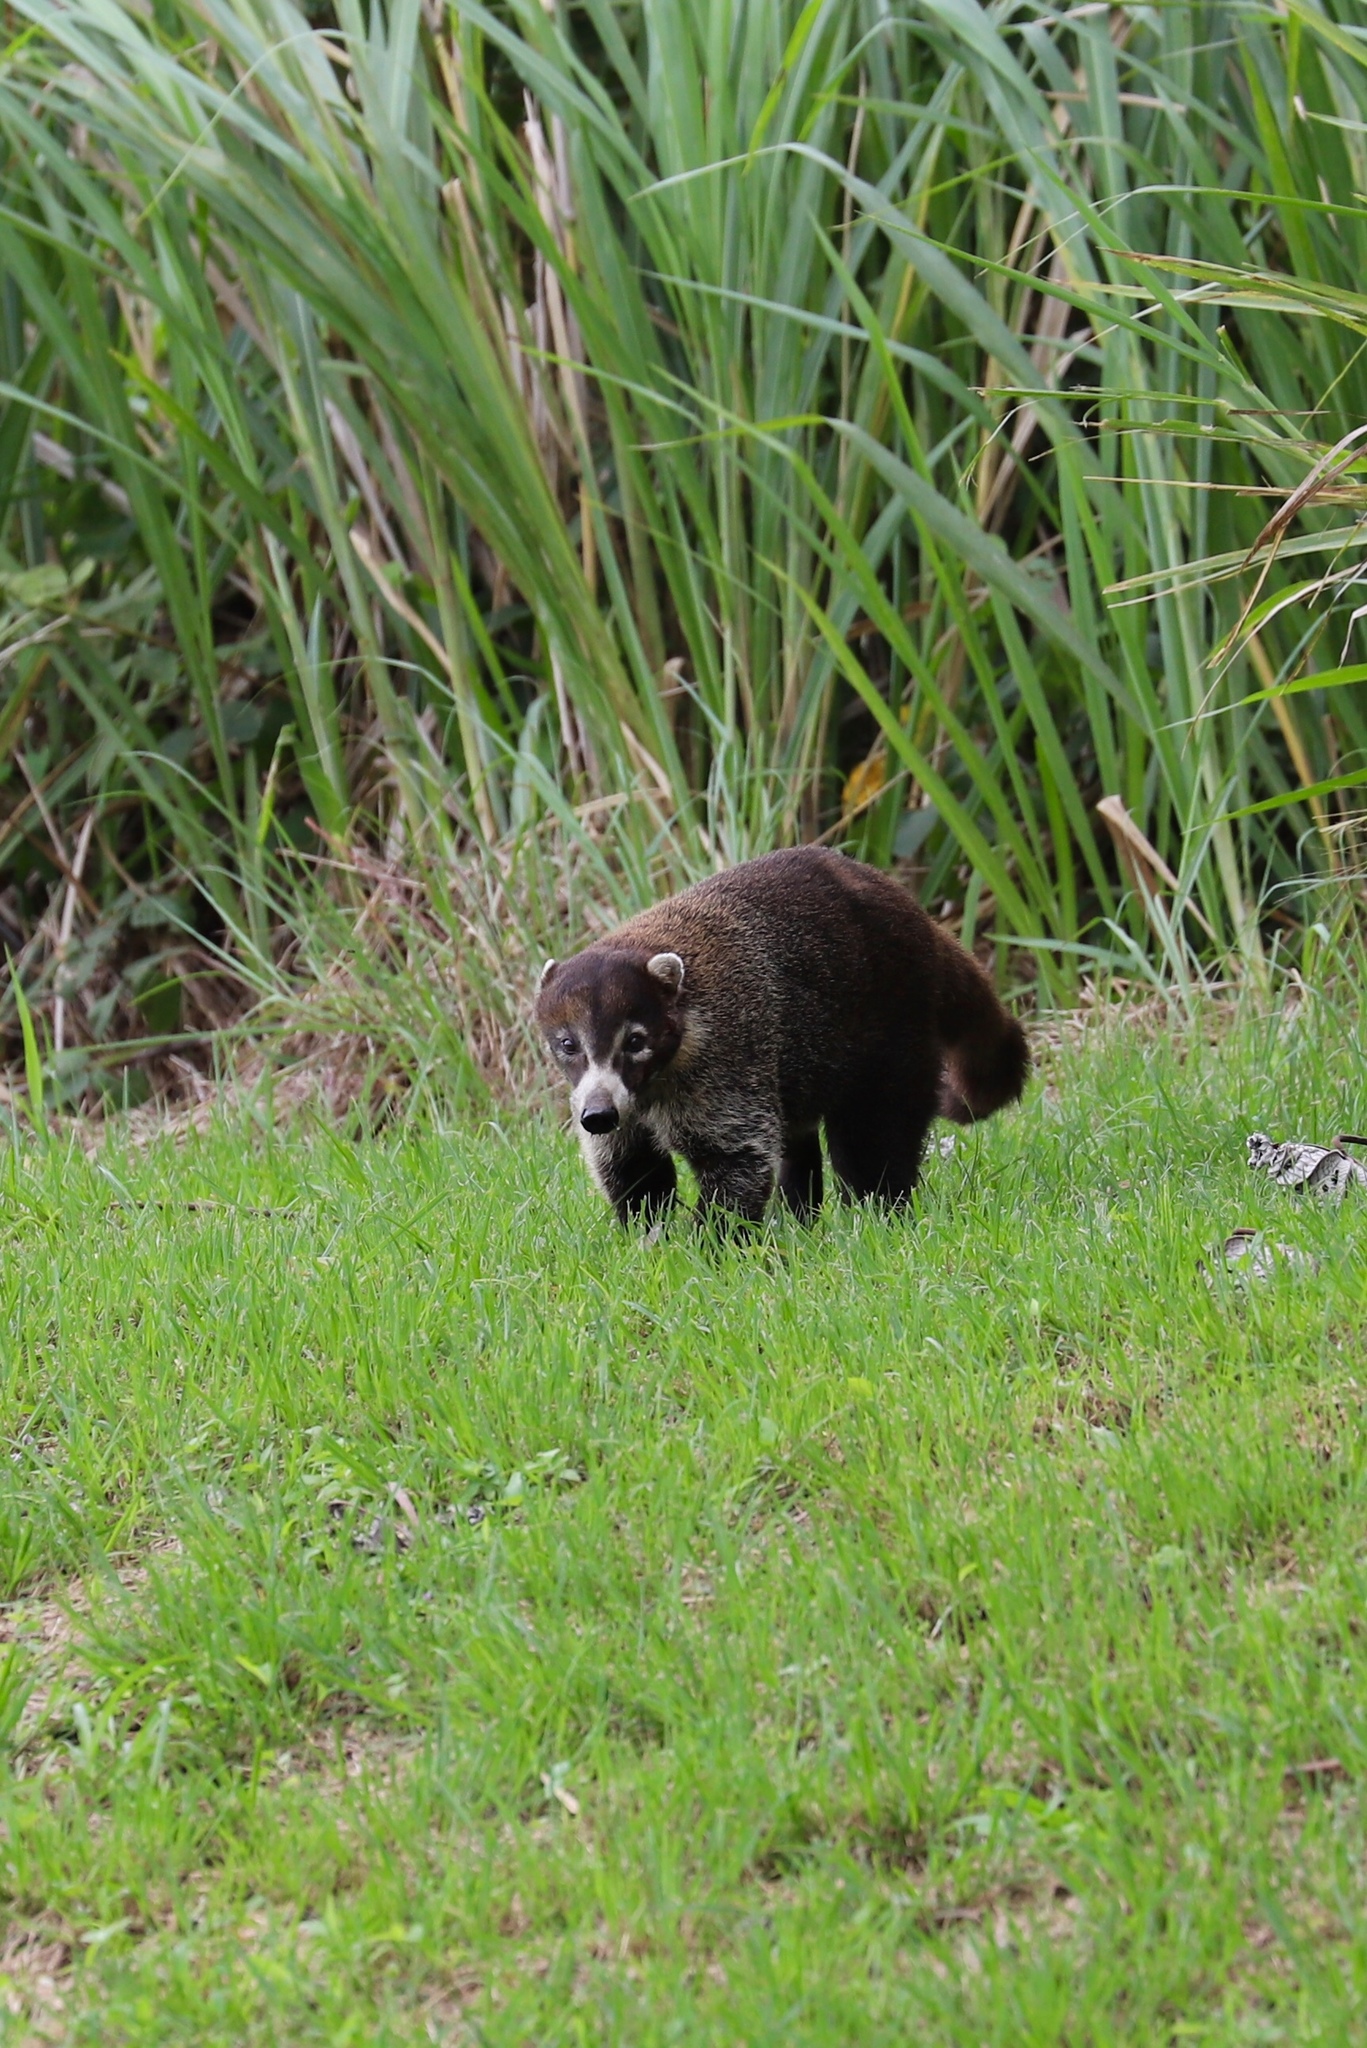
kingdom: Animalia
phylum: Chordata
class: Mammalia
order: Carnivora
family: Procyonidae
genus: Nasua
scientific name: Nasua narica
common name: White-nosed coati
